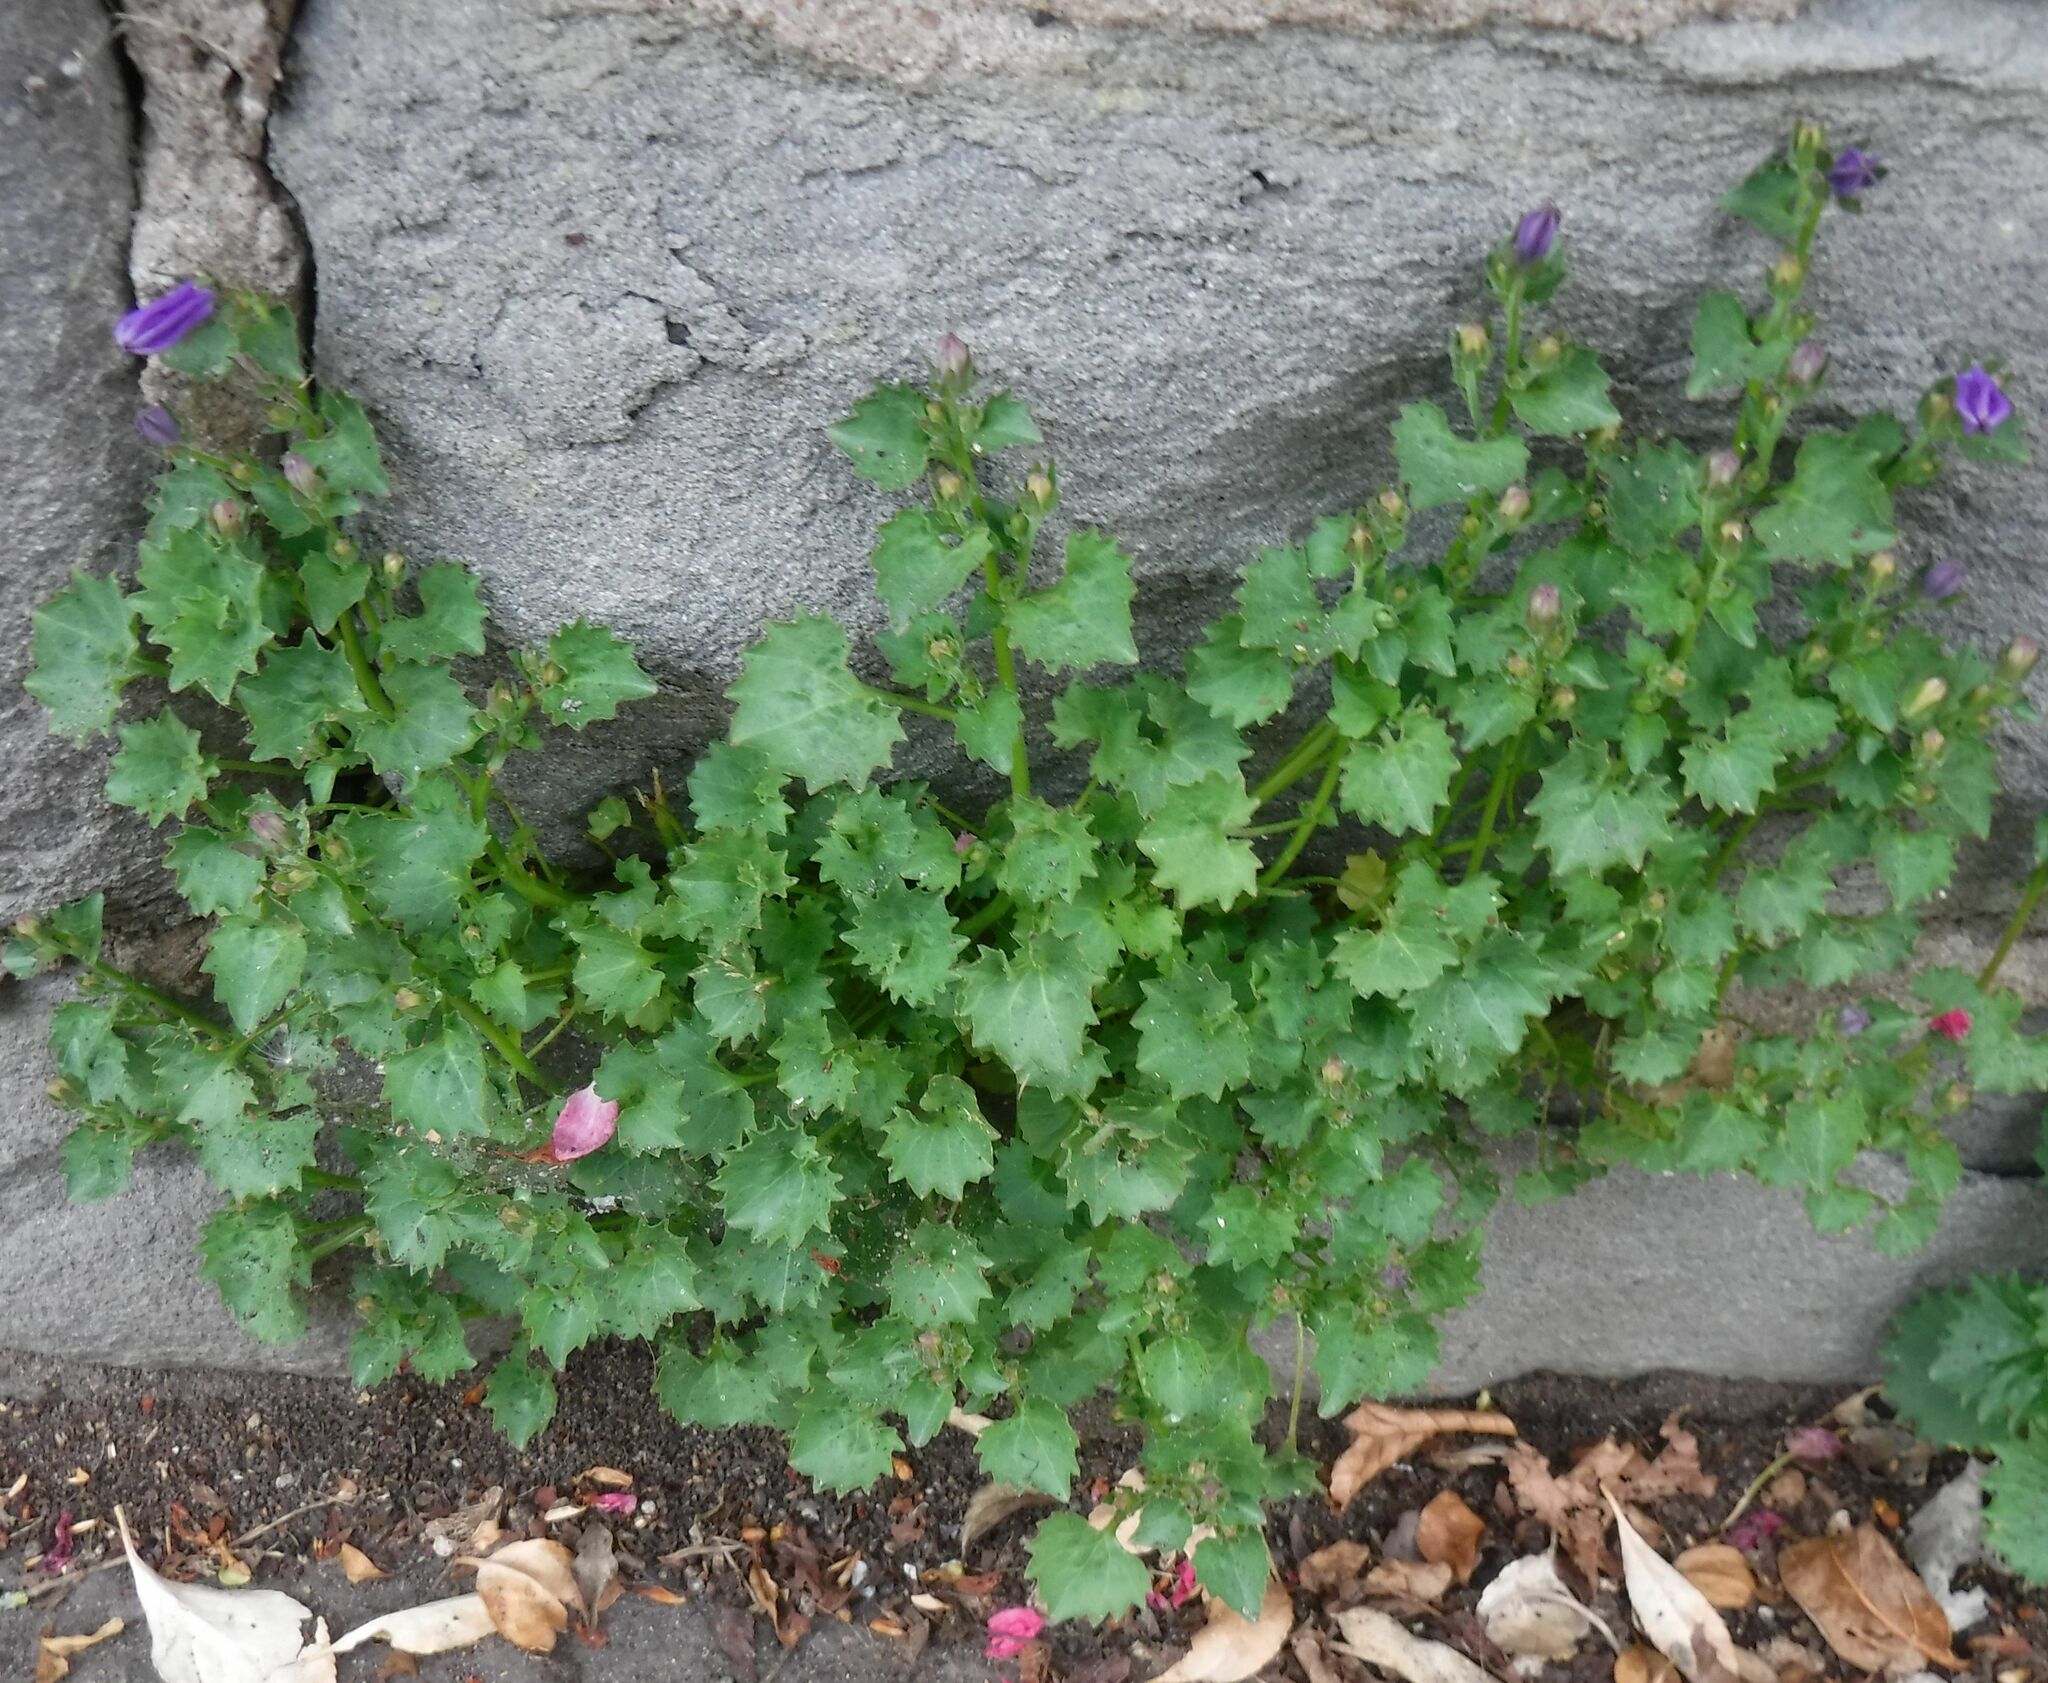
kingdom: Plantae
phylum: Tracheophyta
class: Magnoliopsida
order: Asterales
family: Campanulaceae
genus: Campanula
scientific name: Campanula portenschlagiana
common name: Adria bellflower
